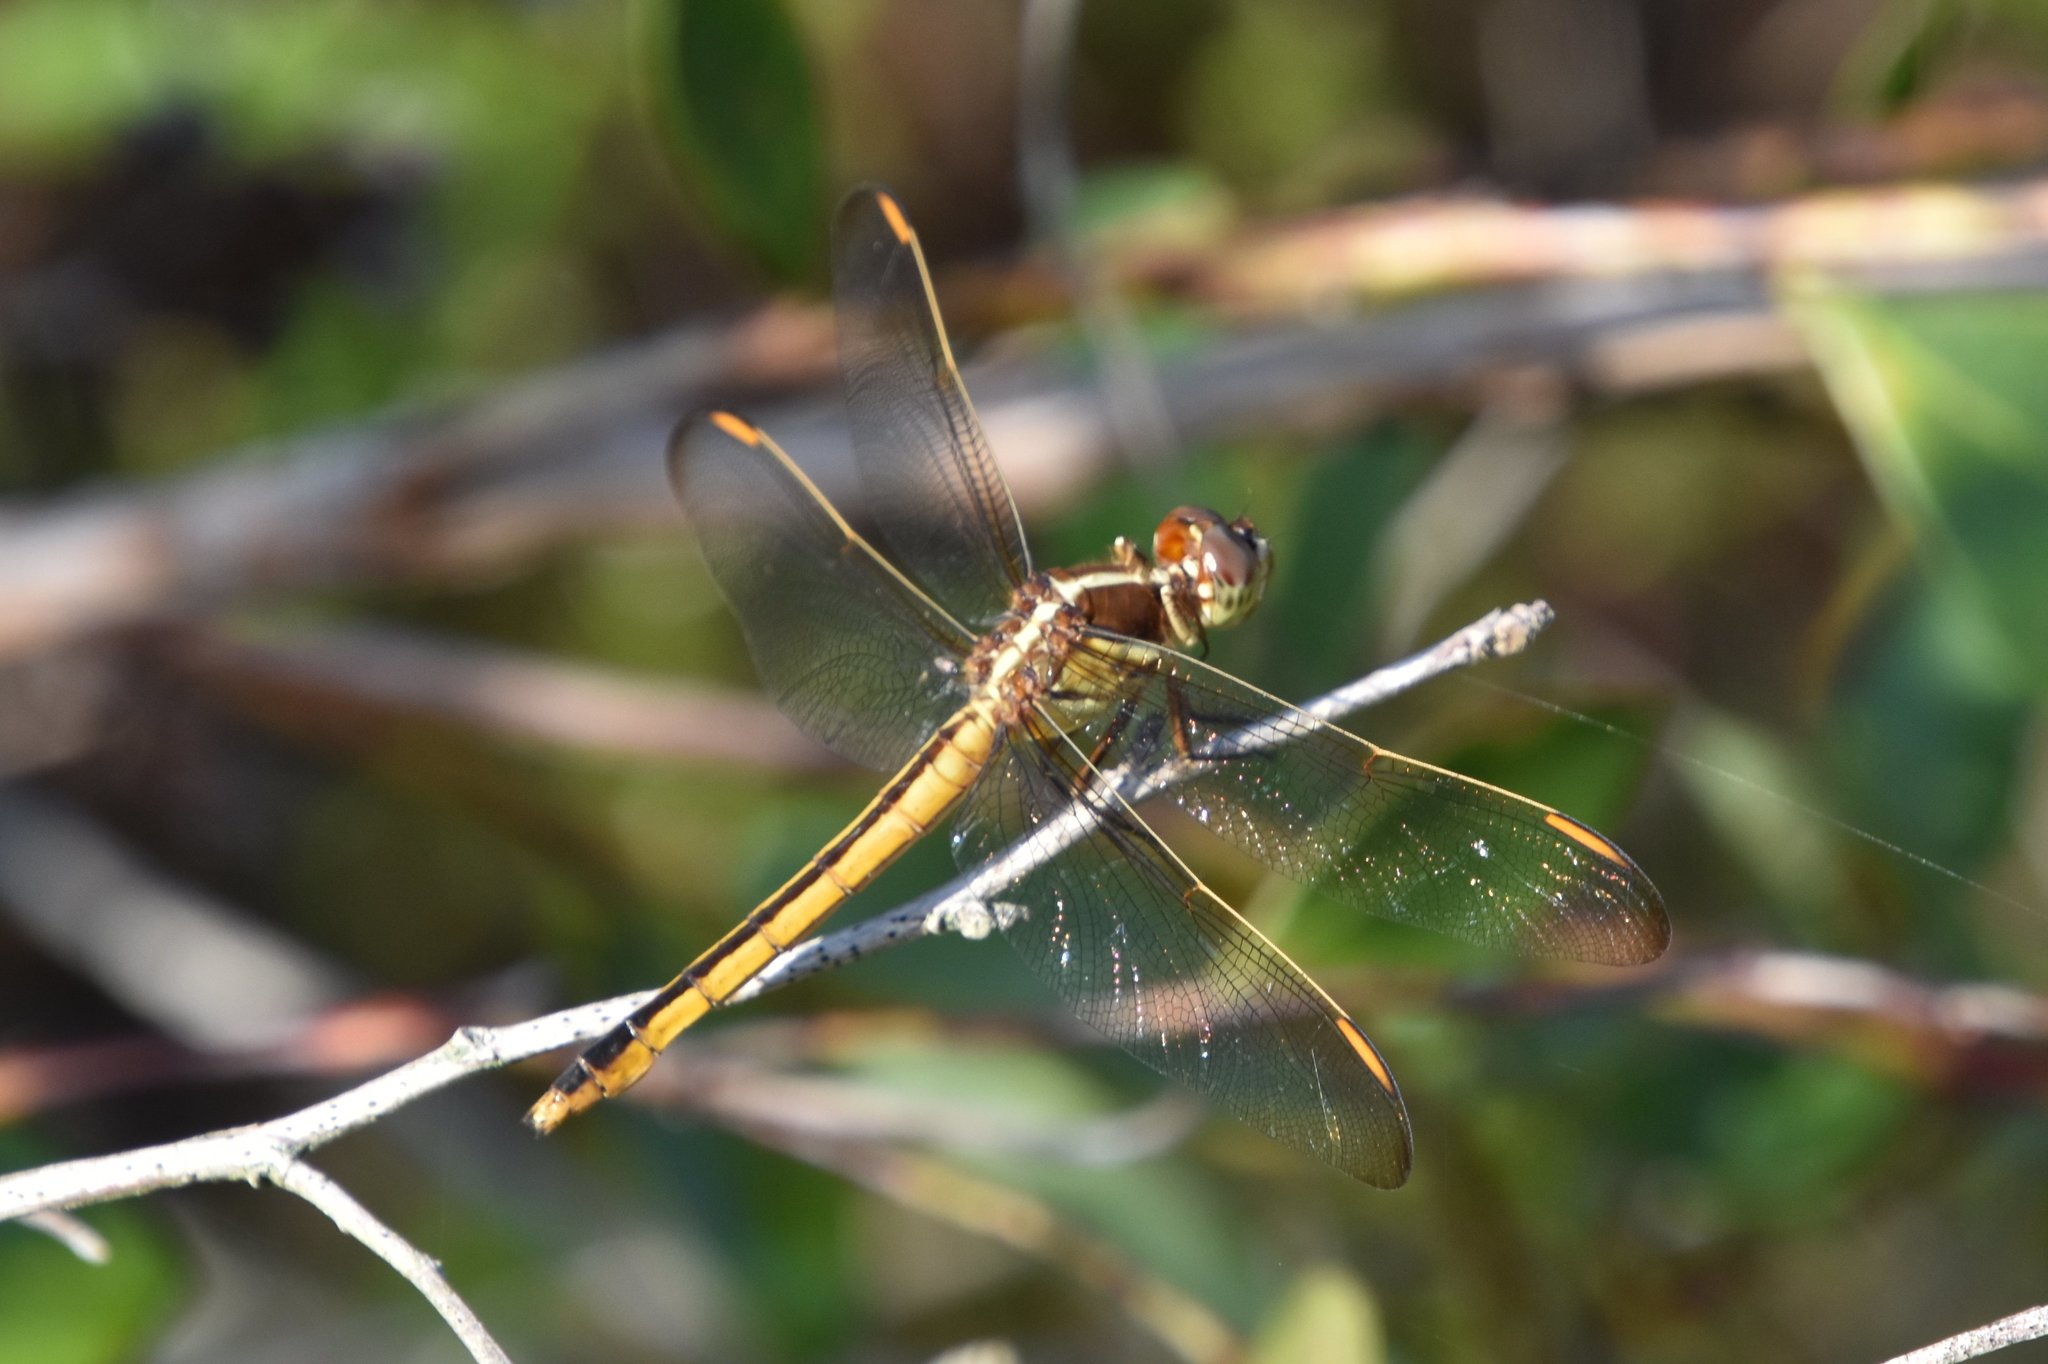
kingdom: Animalia
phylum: Arthropoda
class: Insecta
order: Odonata
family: Libellulidae
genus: Libellula
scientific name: Libellula auripennis
